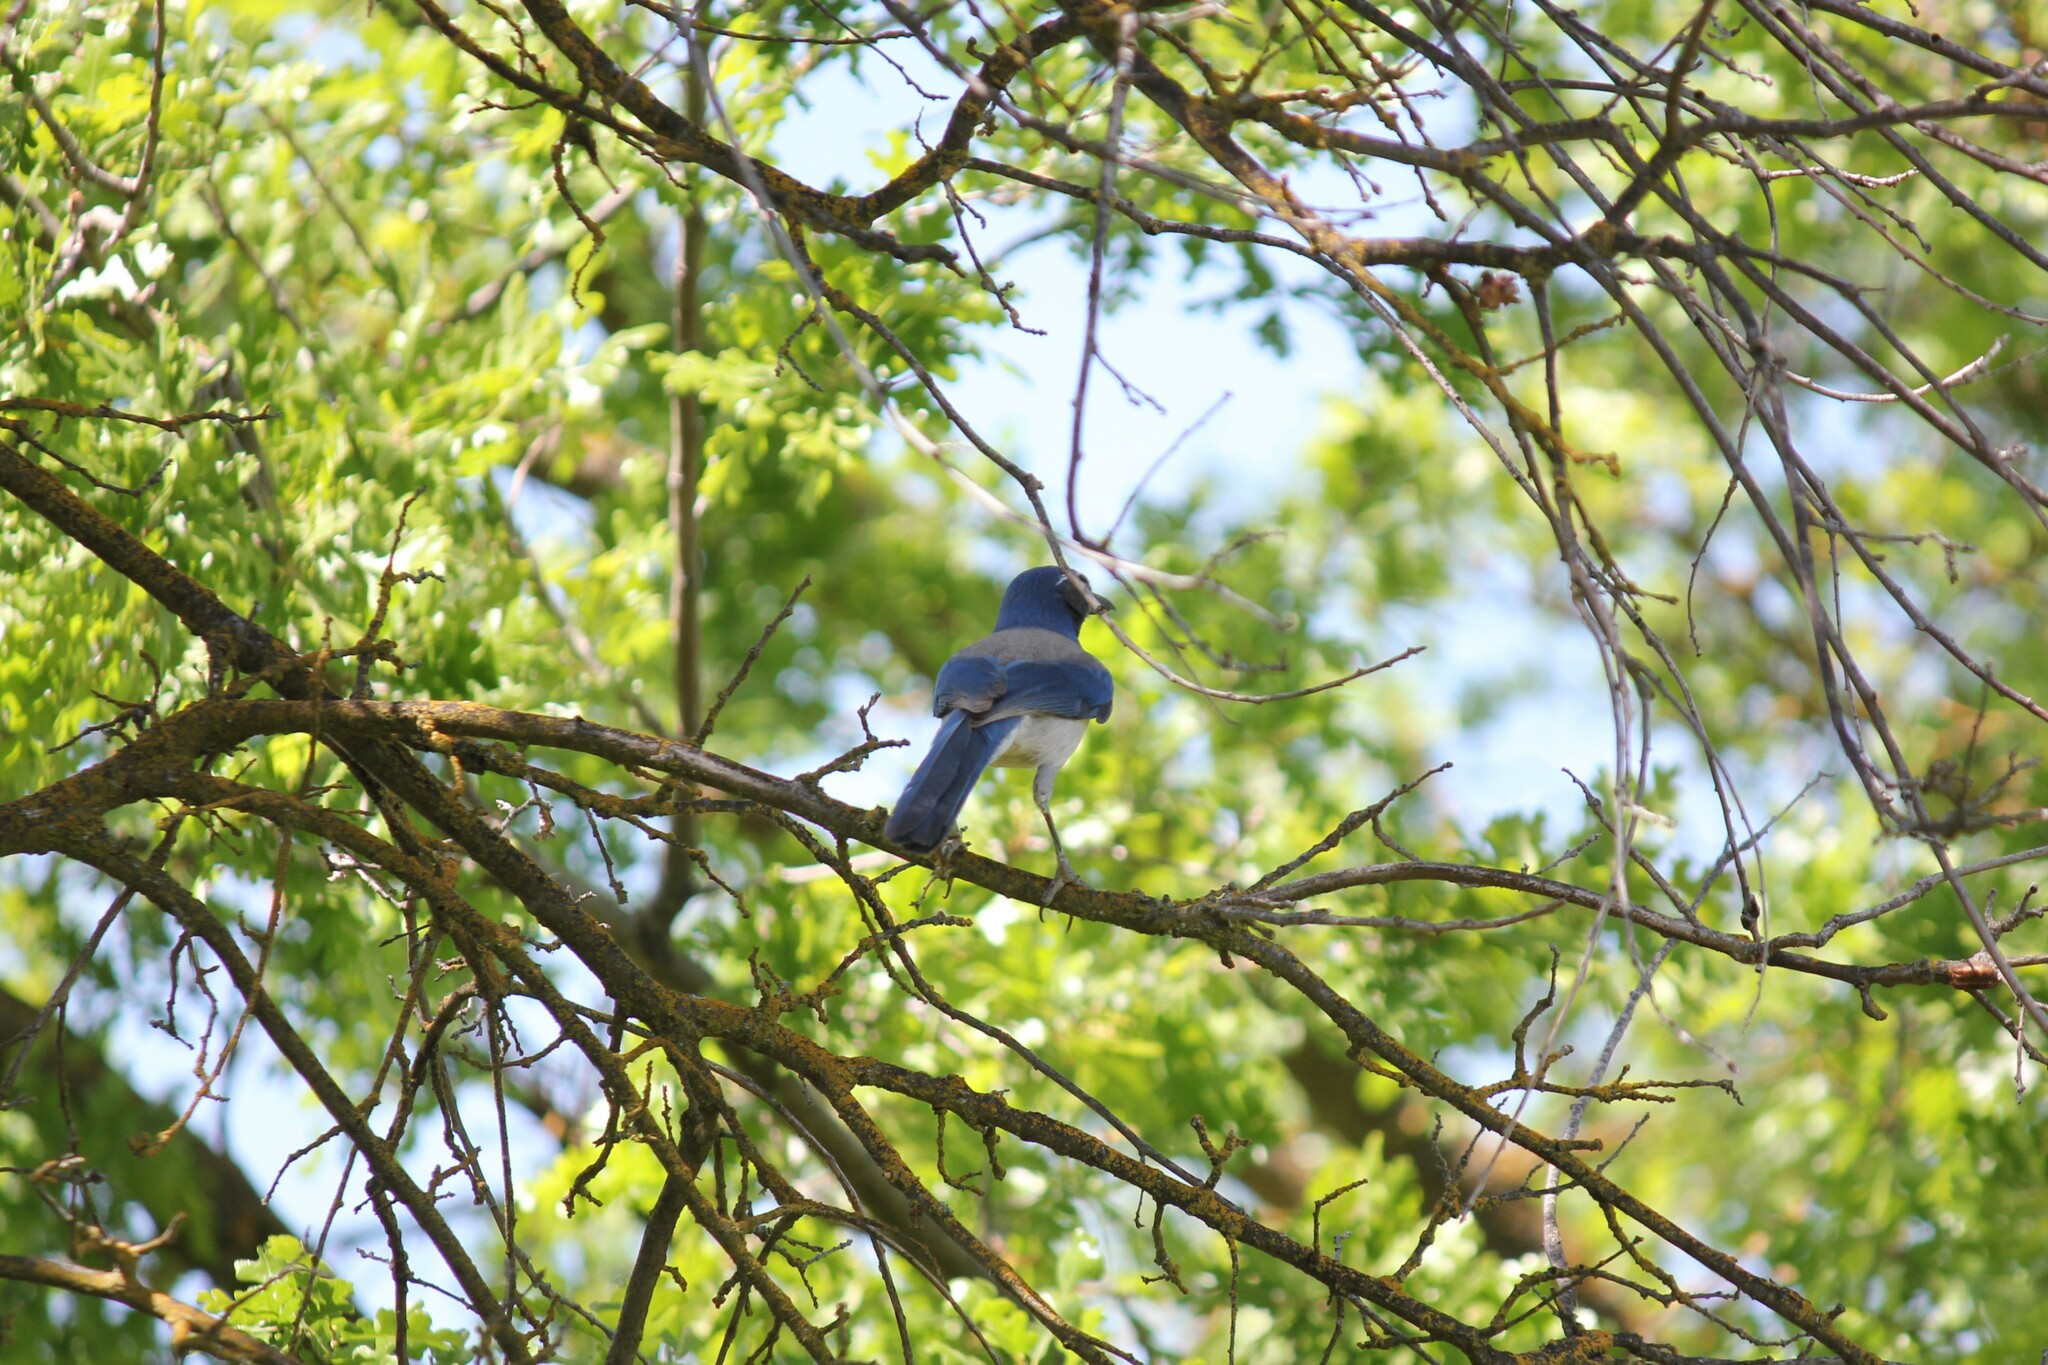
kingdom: Animalia
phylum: Chordata
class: Aves
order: Passeriformes
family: Corvidae
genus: Aphelocoma
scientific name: Aphelocoma californica
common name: California scrub-jay
